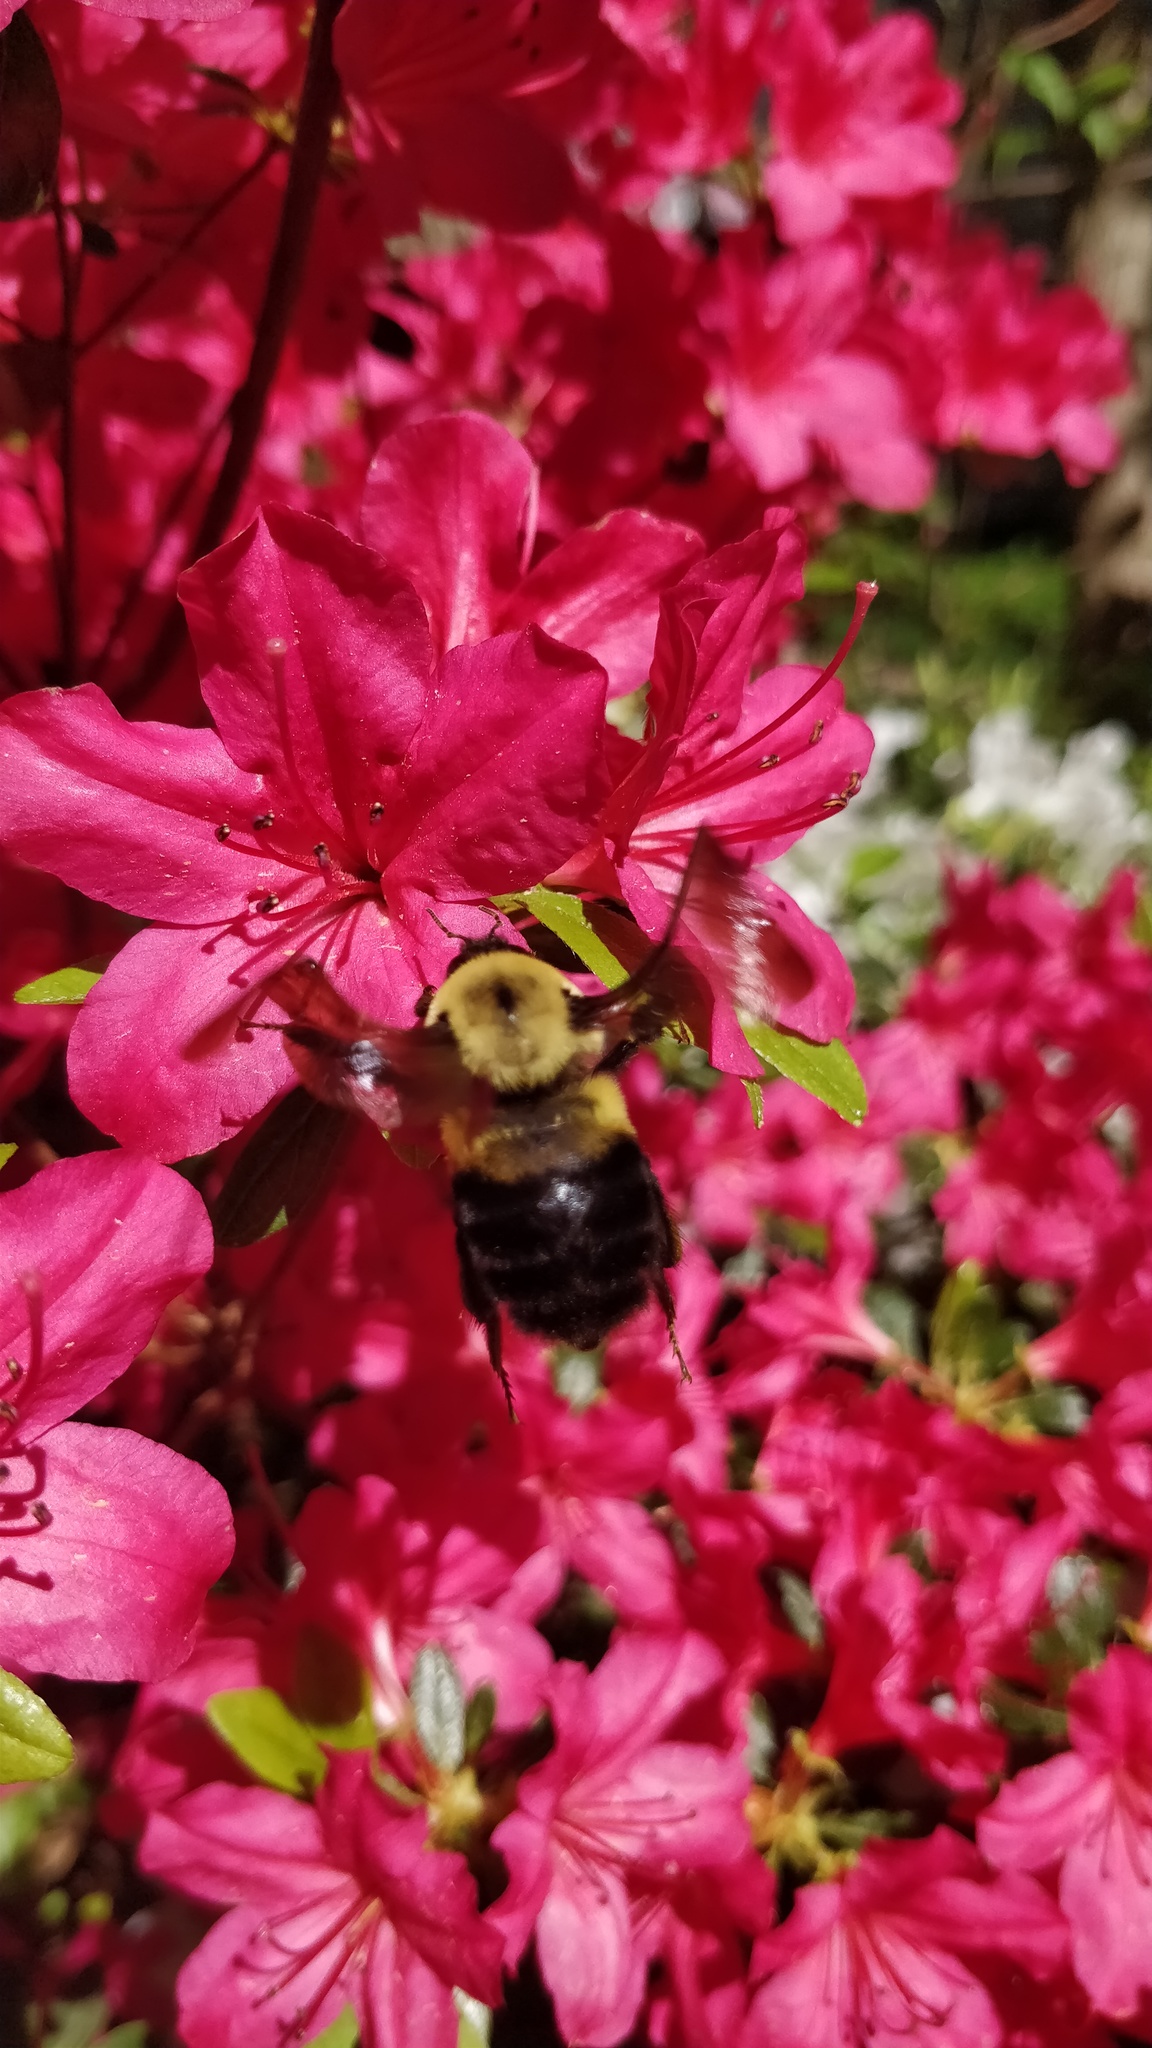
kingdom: Animalia
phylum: Arthropoda
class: Insecta
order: Hymenoptera
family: Apidae
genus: Bombus
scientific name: Bombus griseocollis
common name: Brown-belted bumble bee
